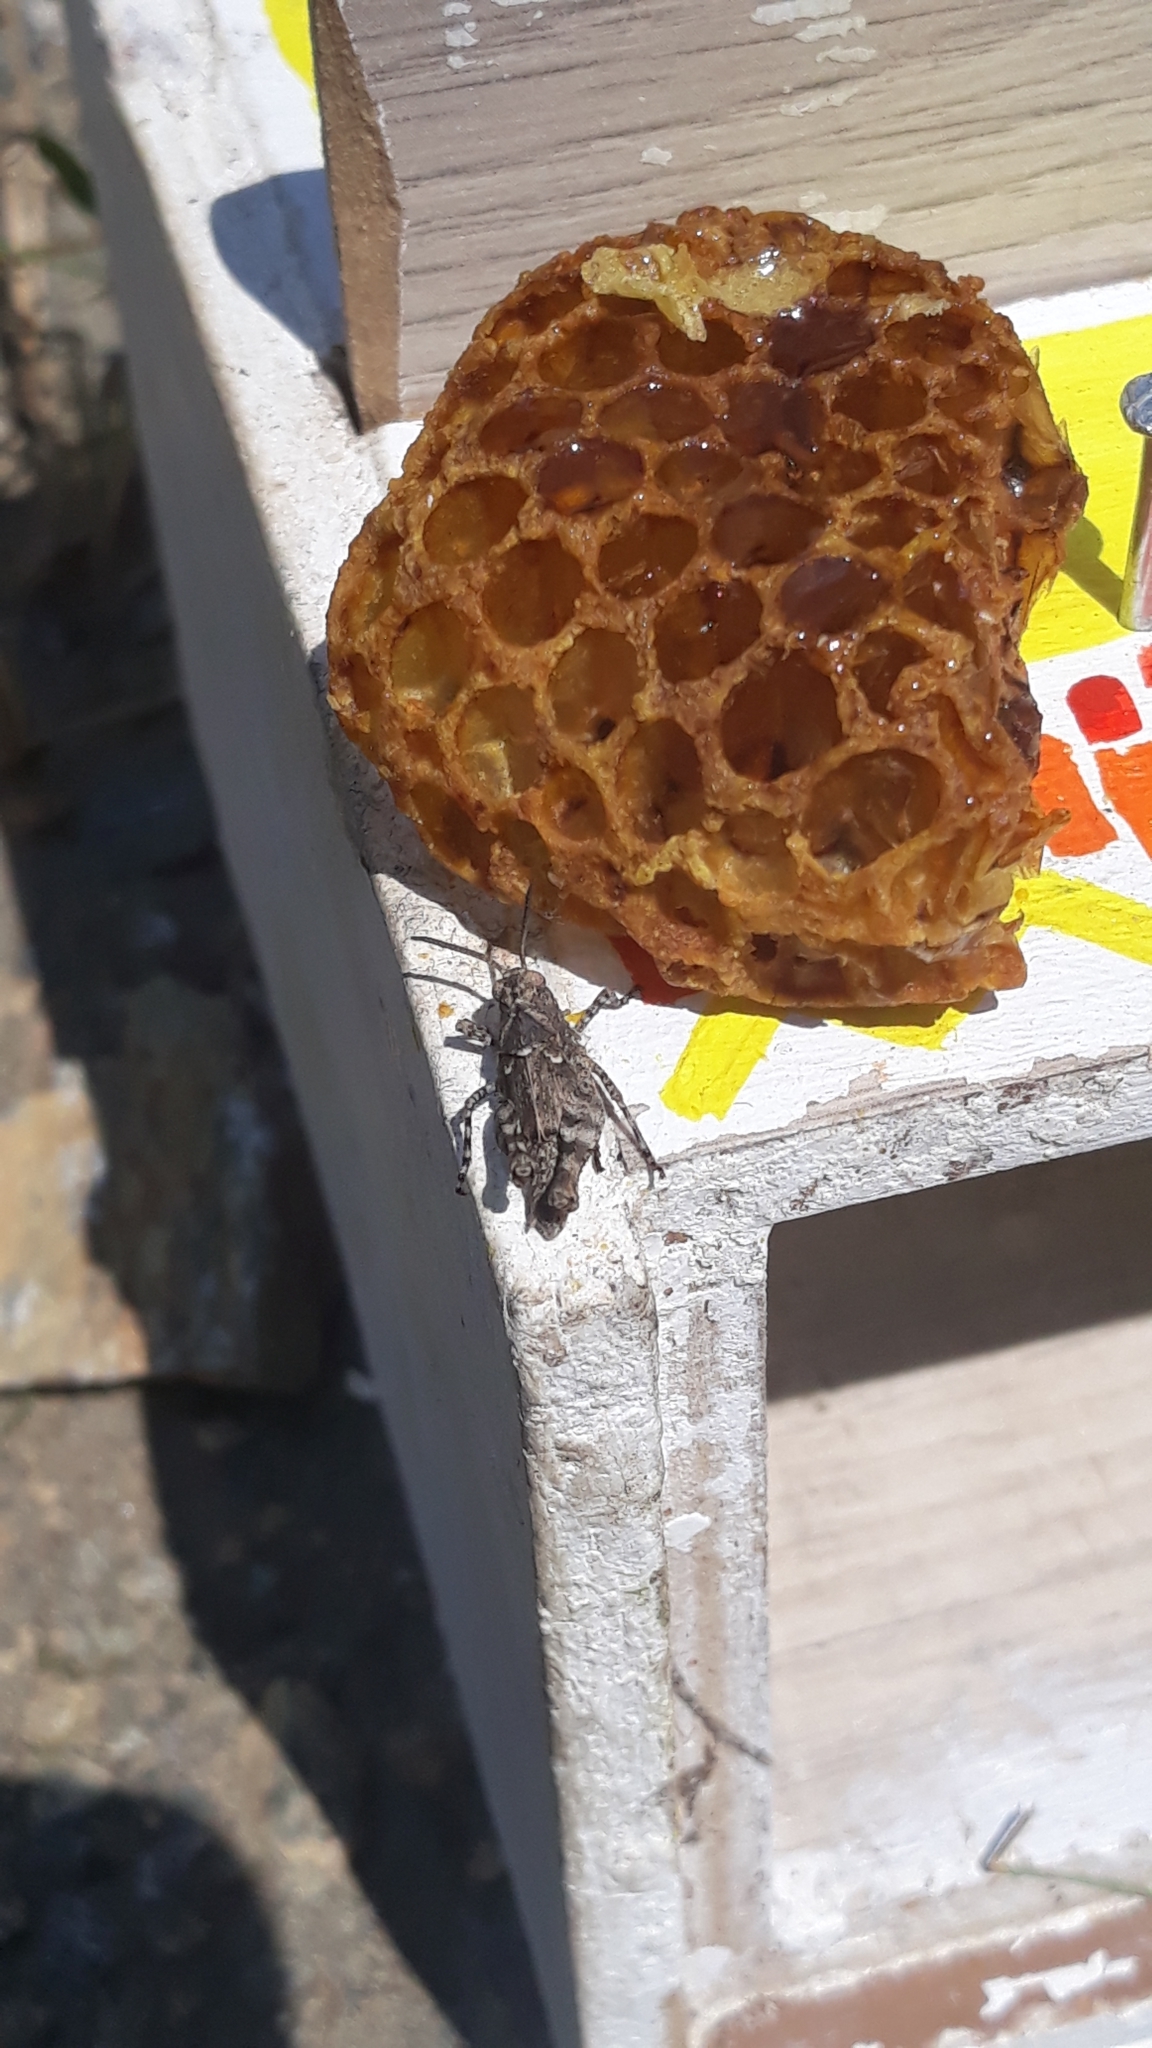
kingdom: Animalia
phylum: Arthropoda
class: Insecta
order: Orthoptera
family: Acrididae
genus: Oedipoda
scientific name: Oedipoda caerulescens
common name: Blue-winged grasshopper
